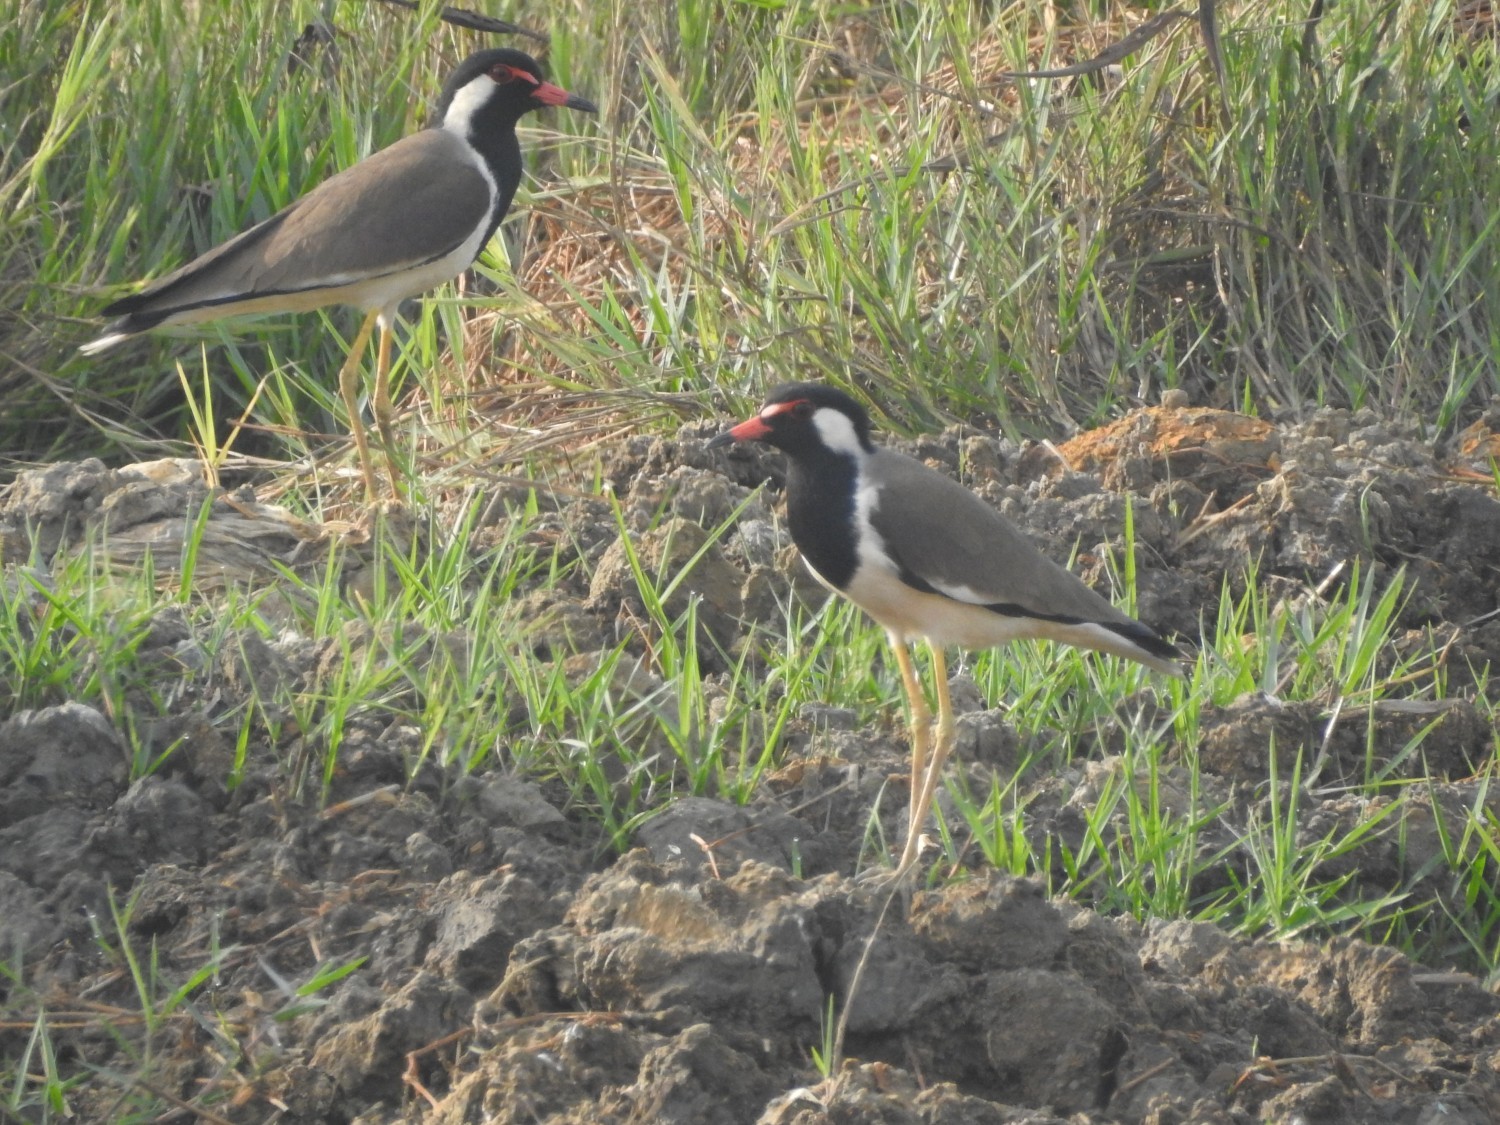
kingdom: Animalia
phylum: Chordata
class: Aves
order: Charadriiformes
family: Charadriidae
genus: Vanellus
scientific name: Vanellus indicus
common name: Red-wattled lapwing
